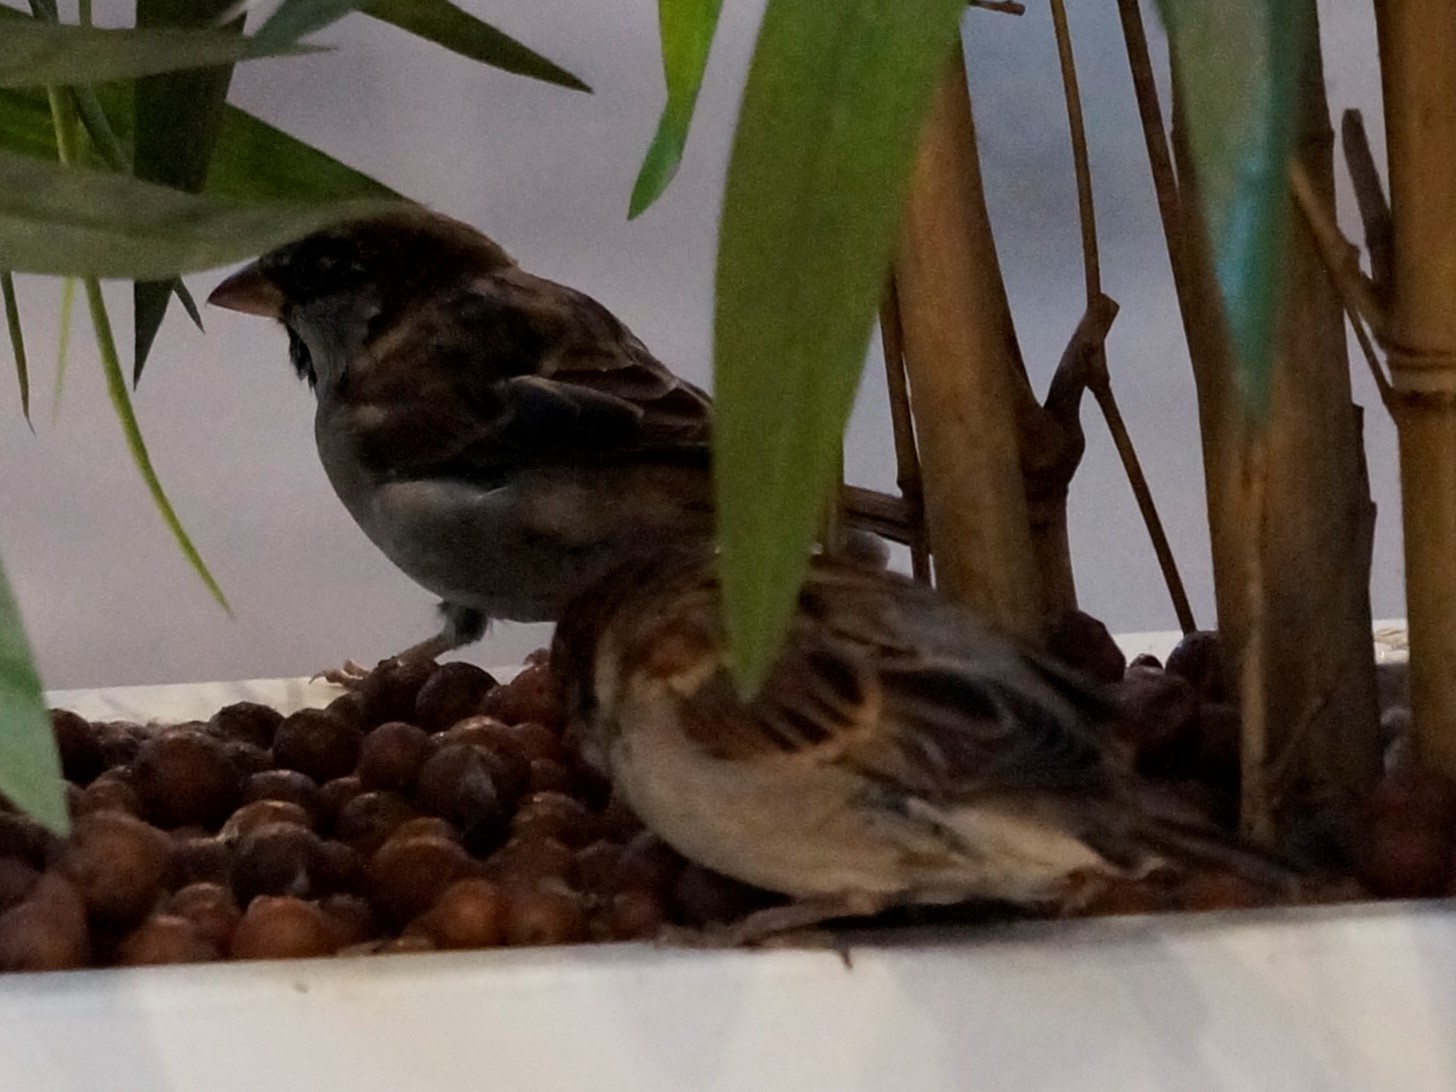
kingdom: Animalia
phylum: Chordata
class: Aves
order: Passeriformes
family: Passeridae
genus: Passer
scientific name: Passer domesticus
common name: House sparrow
